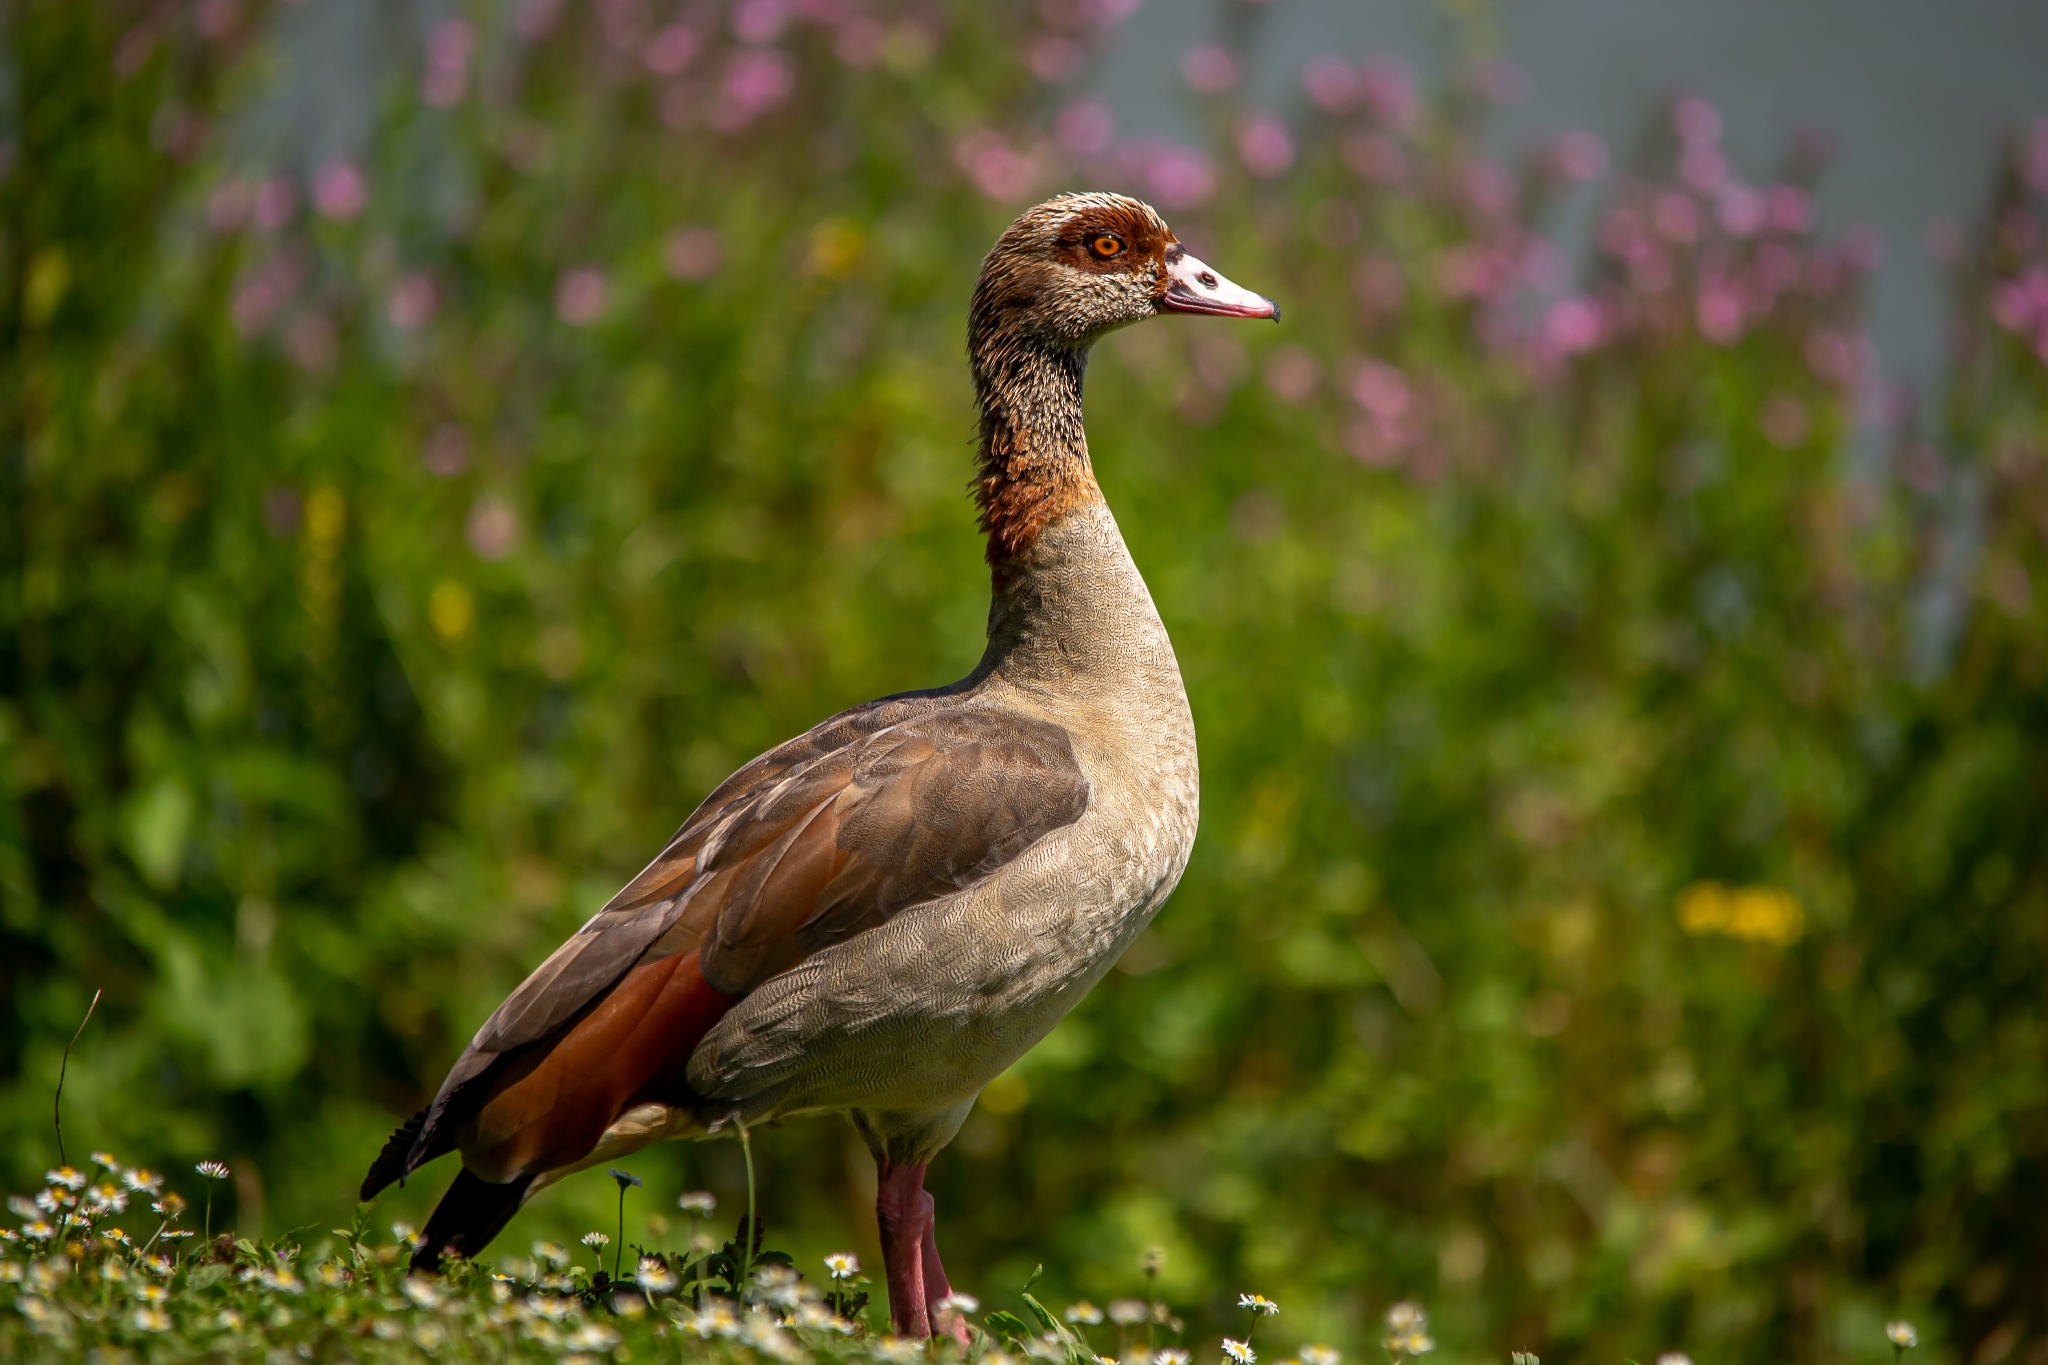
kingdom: Animalia
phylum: Chordata
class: Aves
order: Anseriformes
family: Anatidae
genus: Alopochen
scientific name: Alopochen aegyptiaca
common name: Egyptian goose
